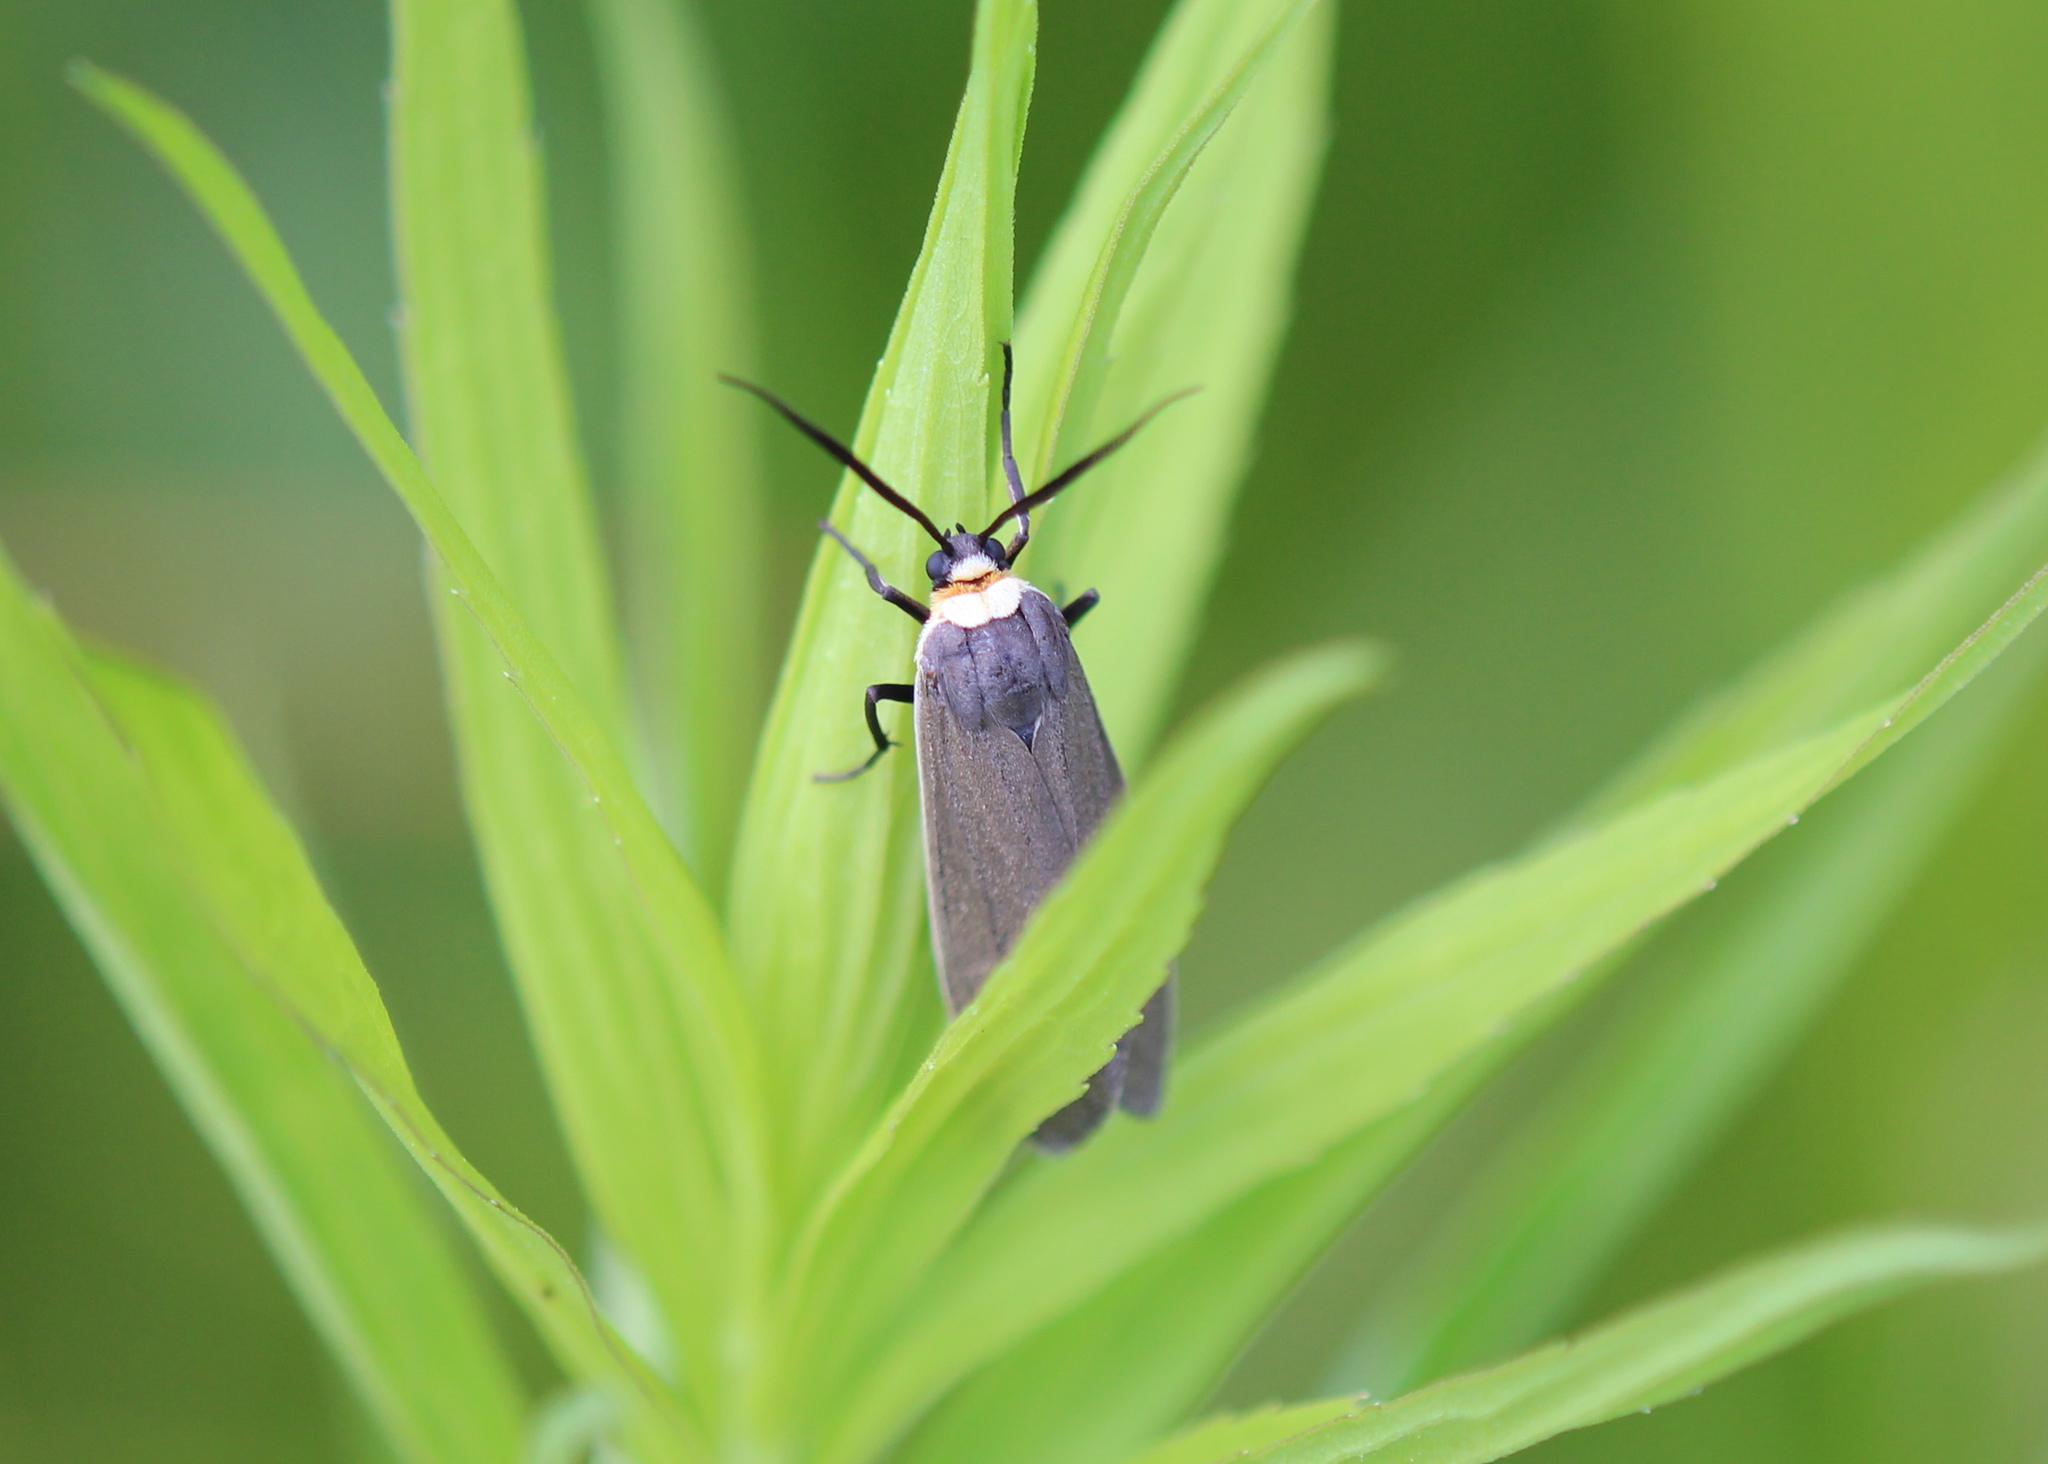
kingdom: Animalia
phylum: Arthropoda
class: Insecta
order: Lepidoptera
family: Erebidae
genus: Cisseps
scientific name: Cisseps fulvicollis
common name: Yellow-collared scape moth
